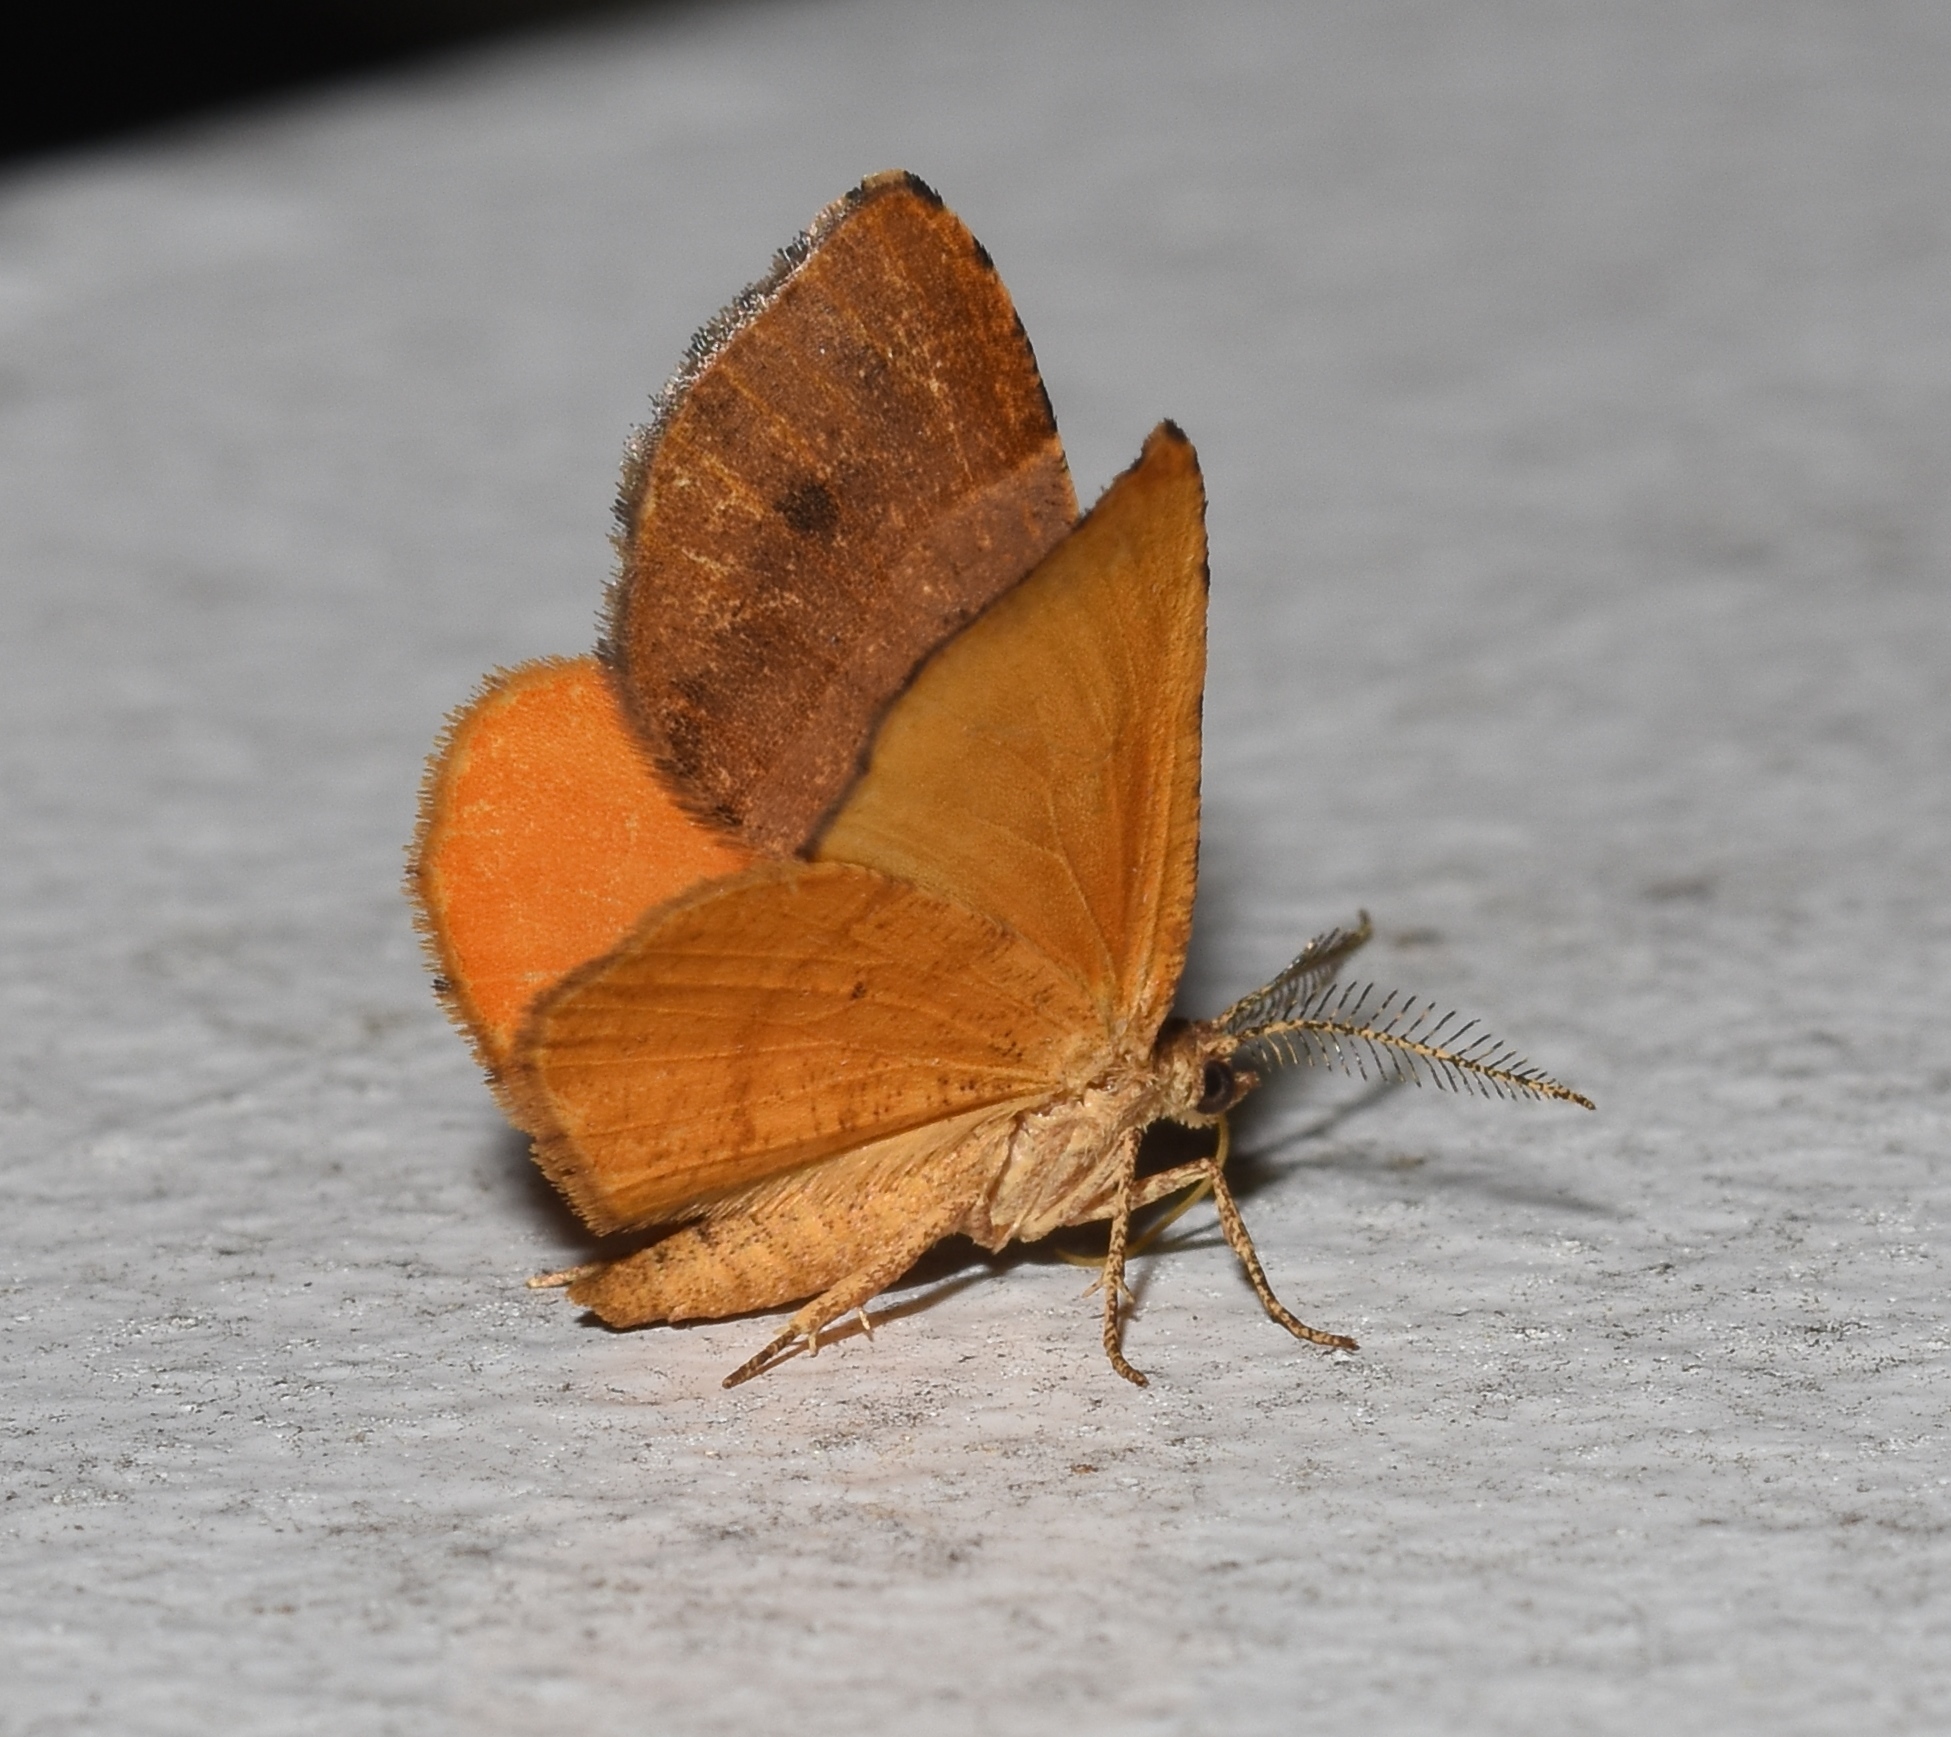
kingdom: Animalia
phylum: Arthropoda
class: Insecta
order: Lepidoptera
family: Geometridae
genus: Mellilla
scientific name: Mellilla xanthometata
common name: Orange wing moth
